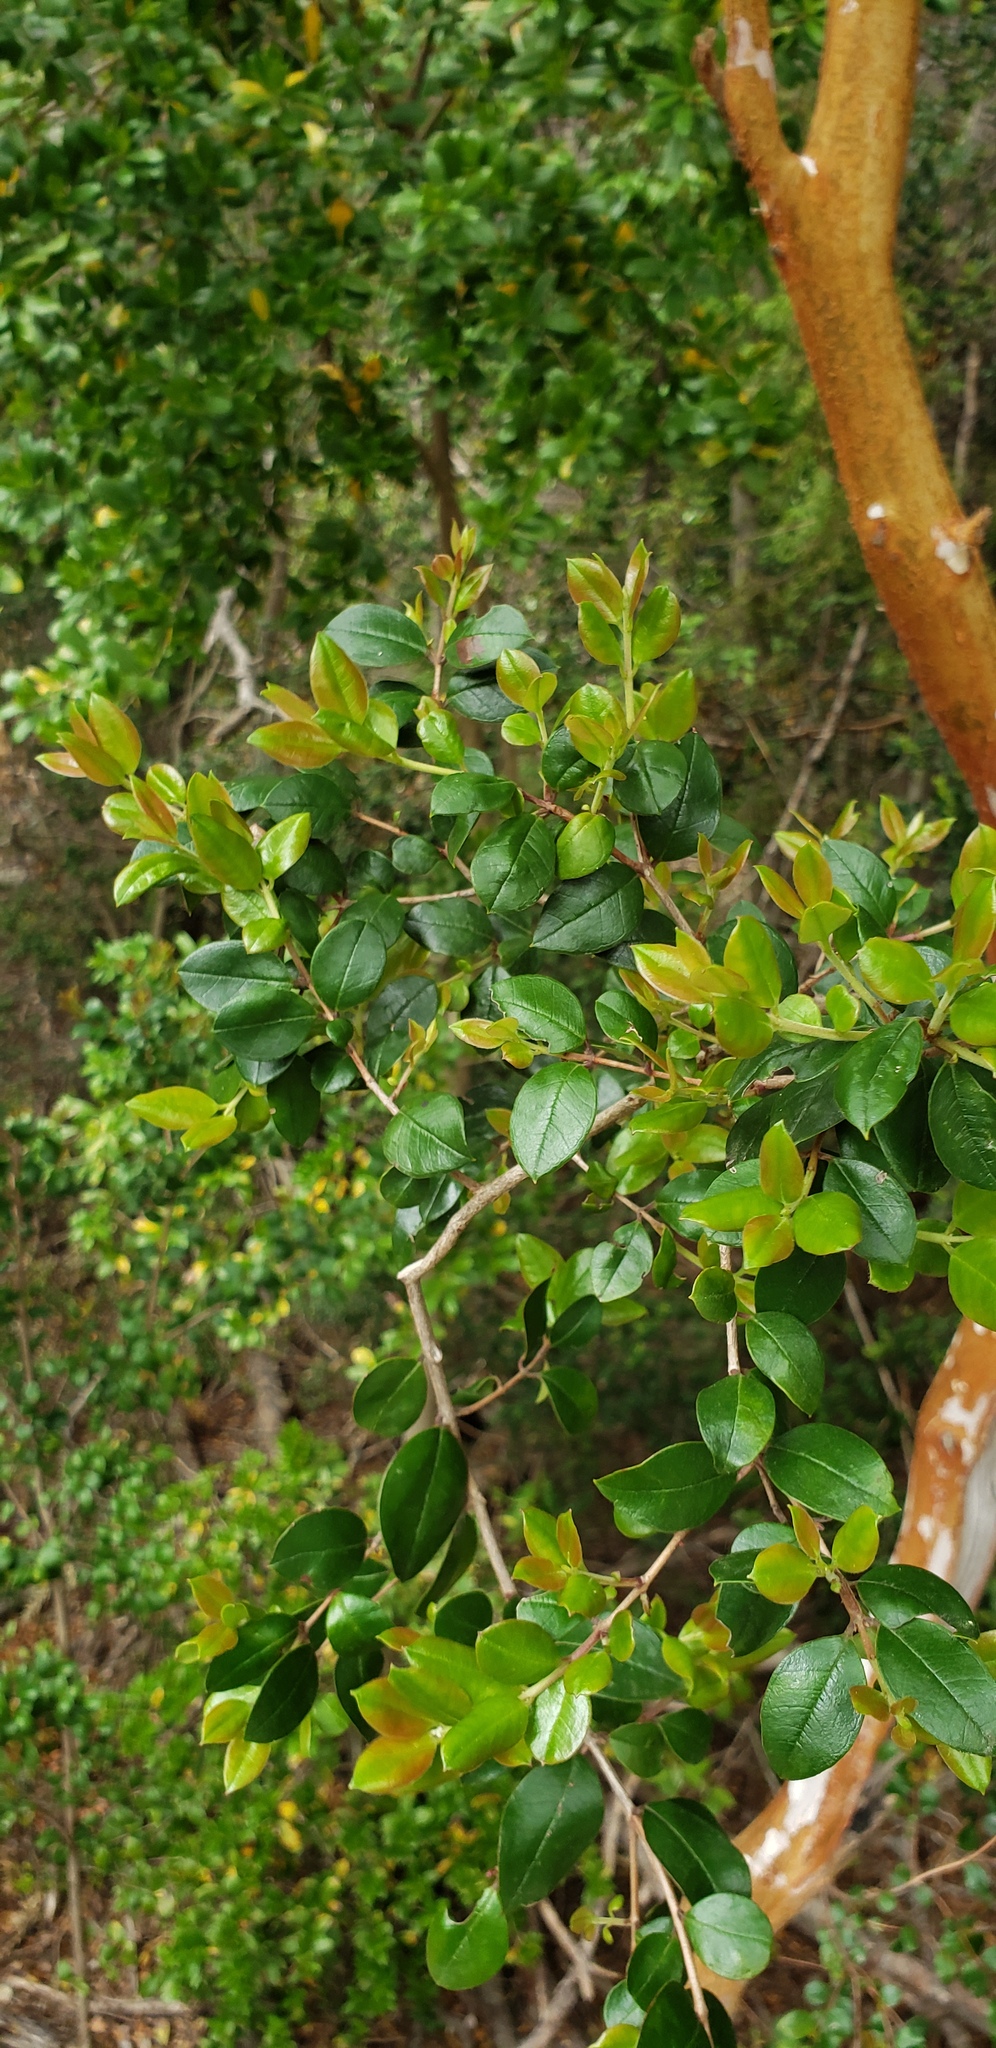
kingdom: Plantae
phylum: Tracheophyta
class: Magnoliopsida
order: Myrtales
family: Myrtaceae
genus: Luma
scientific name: Luma apiculata
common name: Chilean myrtle
